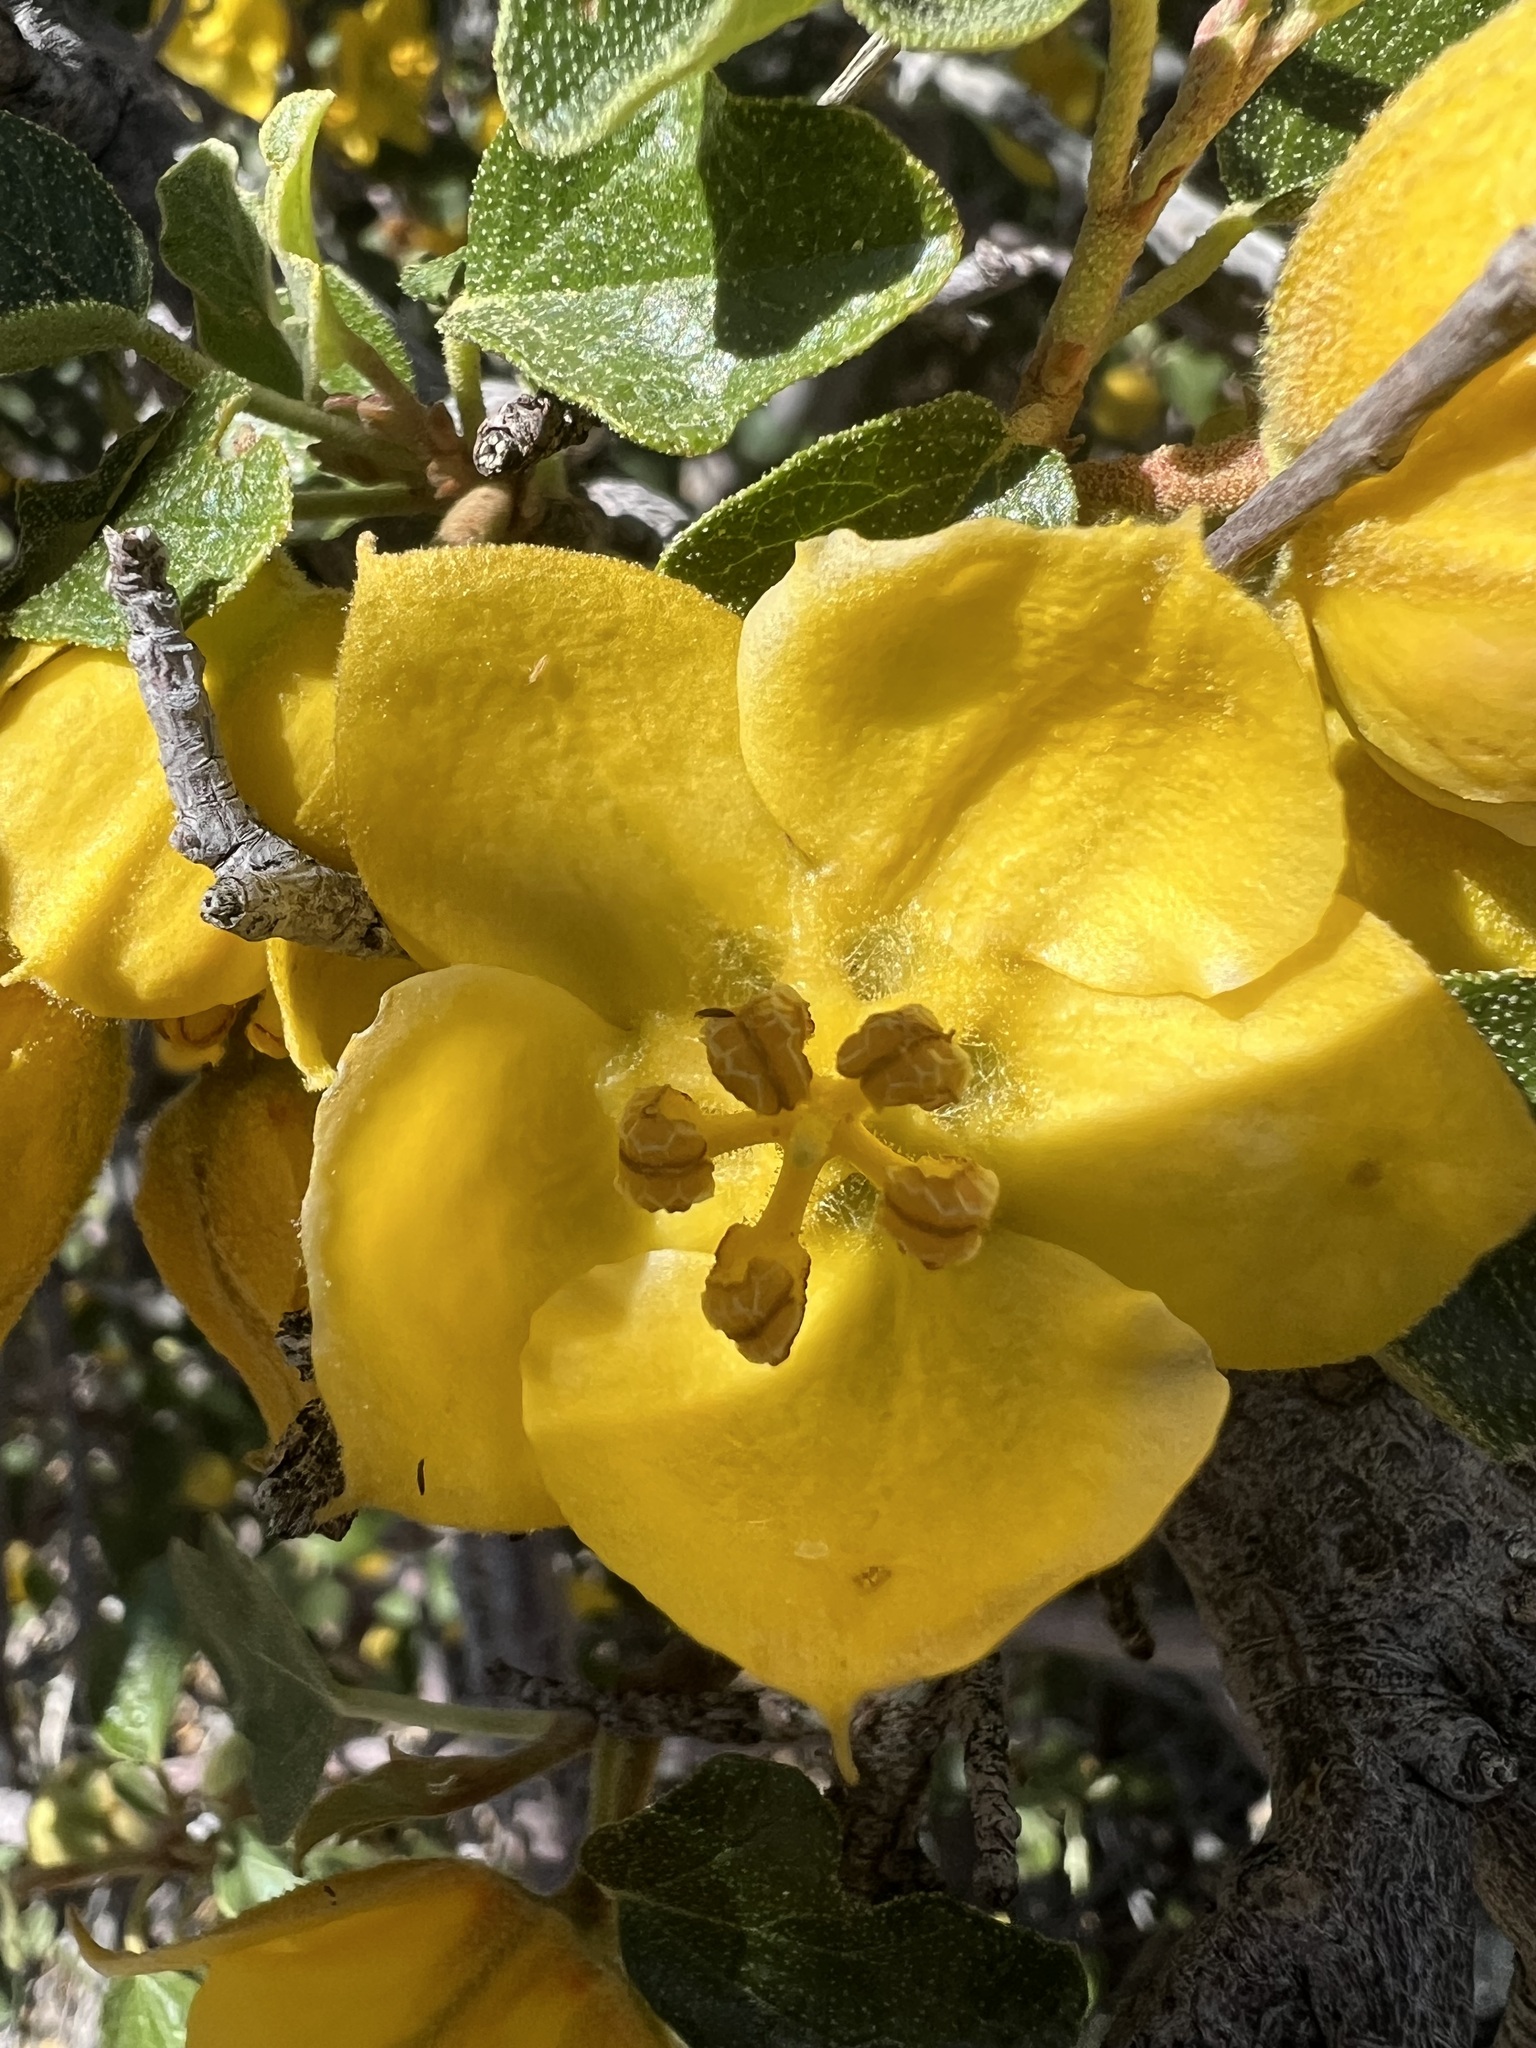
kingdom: Plantae
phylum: Tracheophyta
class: Magnoliopsida
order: Malvales
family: Malvaceae
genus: Fremontodendron
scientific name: Fremontodendron californicum
